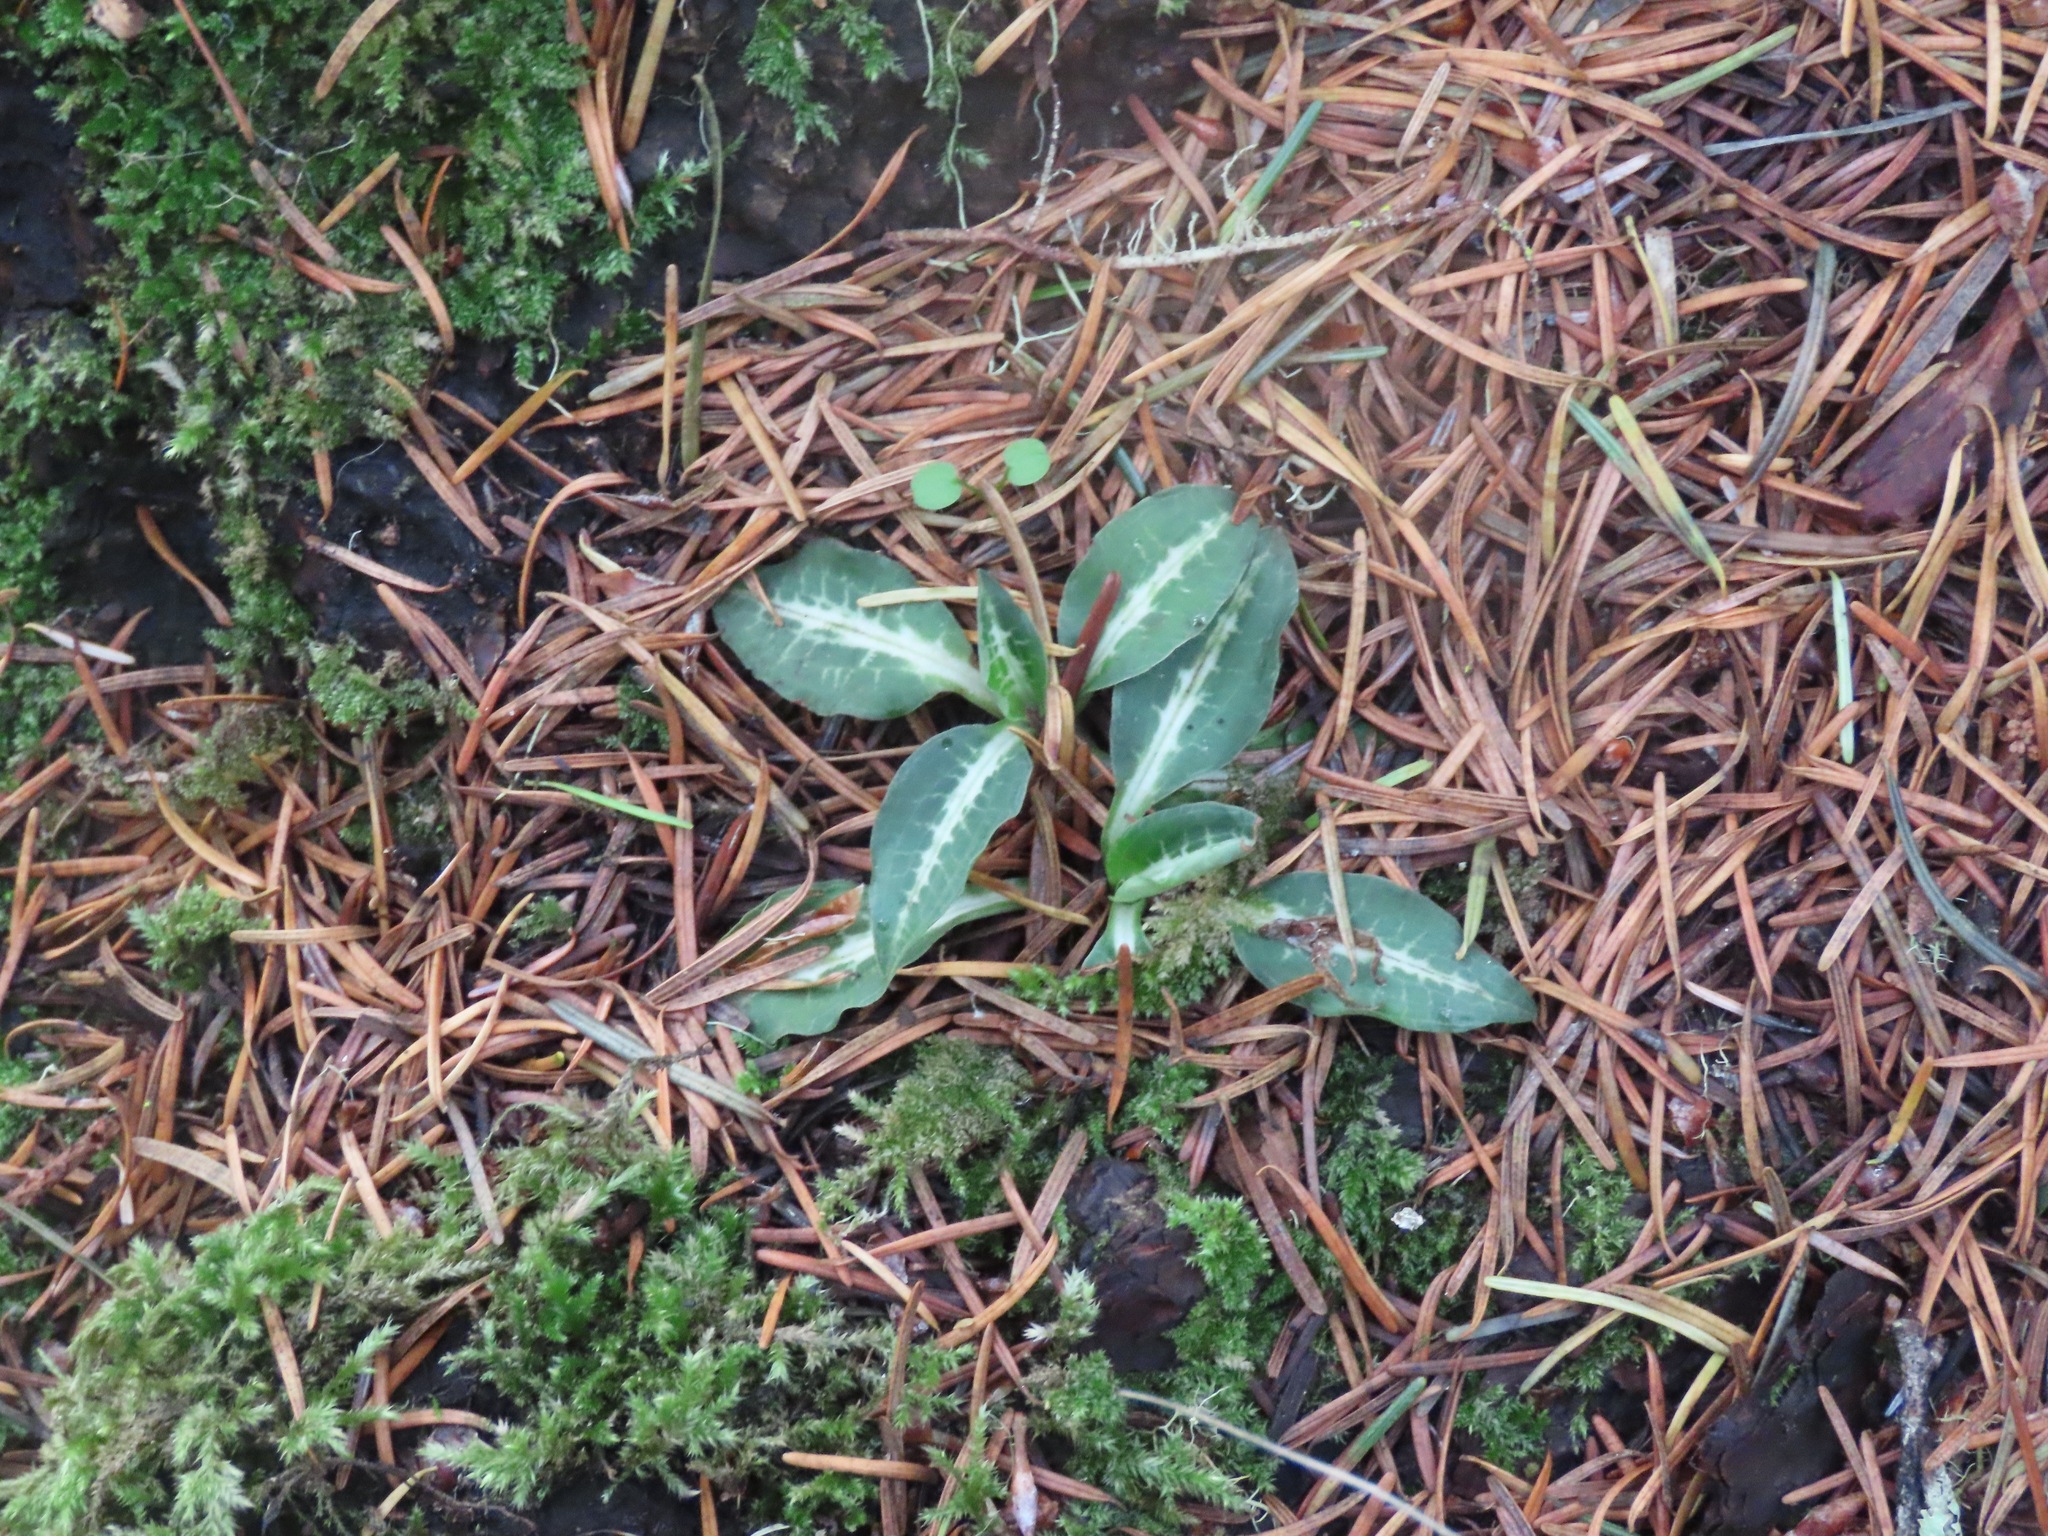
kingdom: Plantae
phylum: Tracheophyta
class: Liliopsida
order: Asparagales
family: Orchidaceae
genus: Goodyera
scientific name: Goodyera oblongifolia
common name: Giant rattlesnake-plantain
